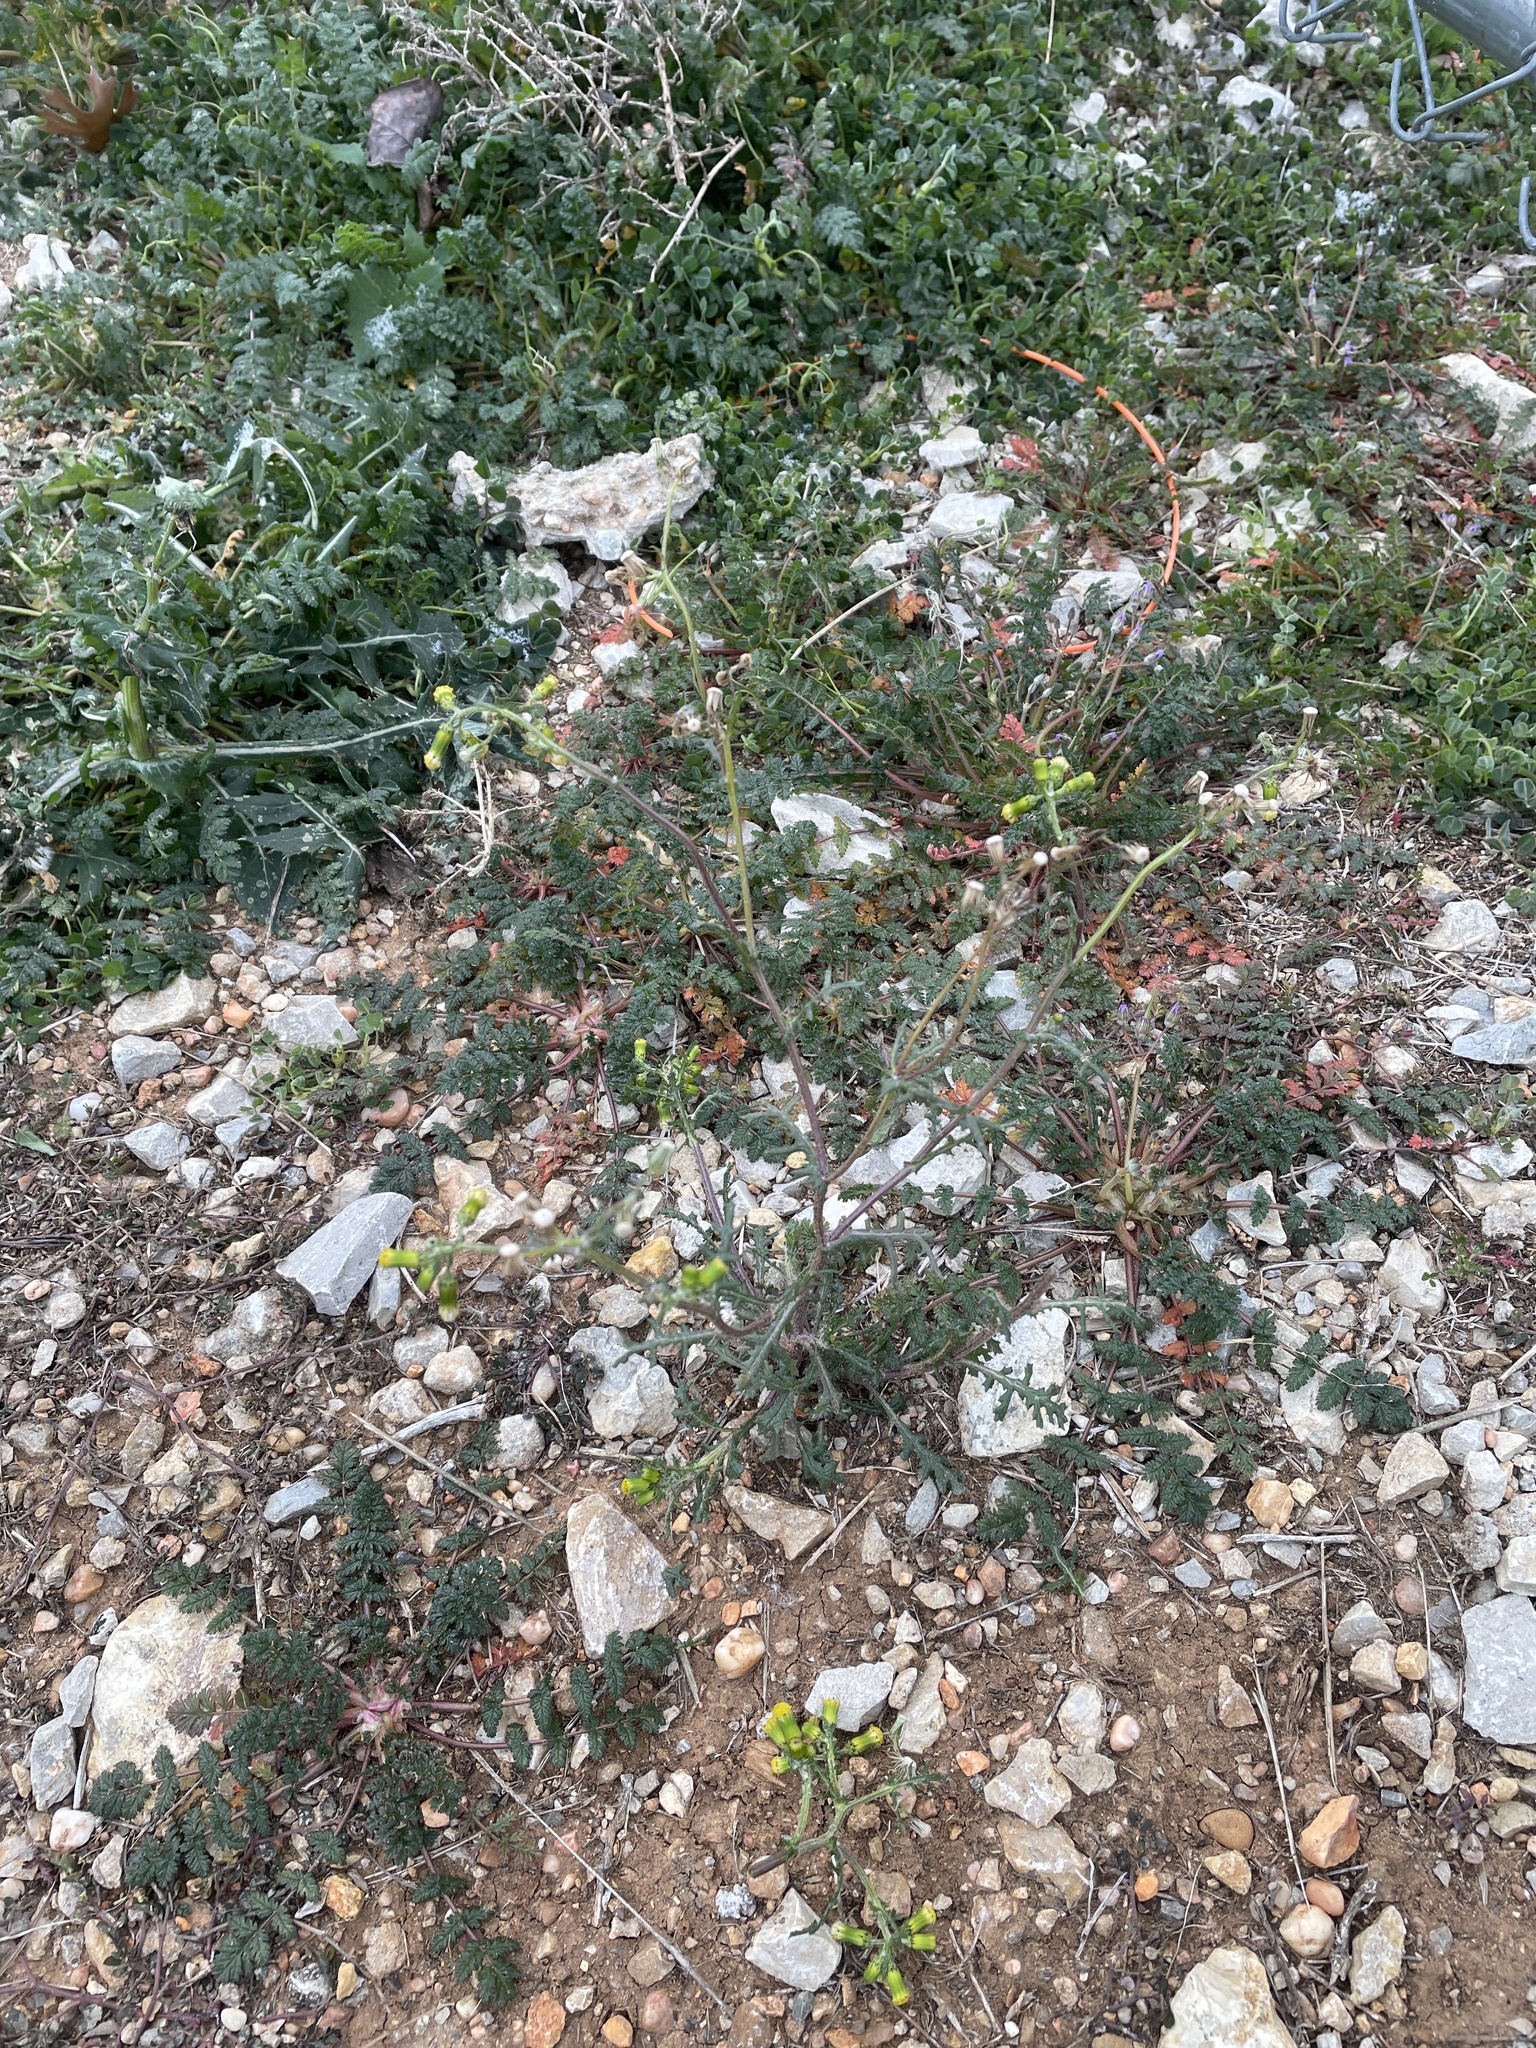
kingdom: Plantae
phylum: Tracheophyta
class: Magnoliopsida
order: Asterales
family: Asteraceae
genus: Senecio
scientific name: Senecio vulgaris
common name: Old-man-in-the-spring
